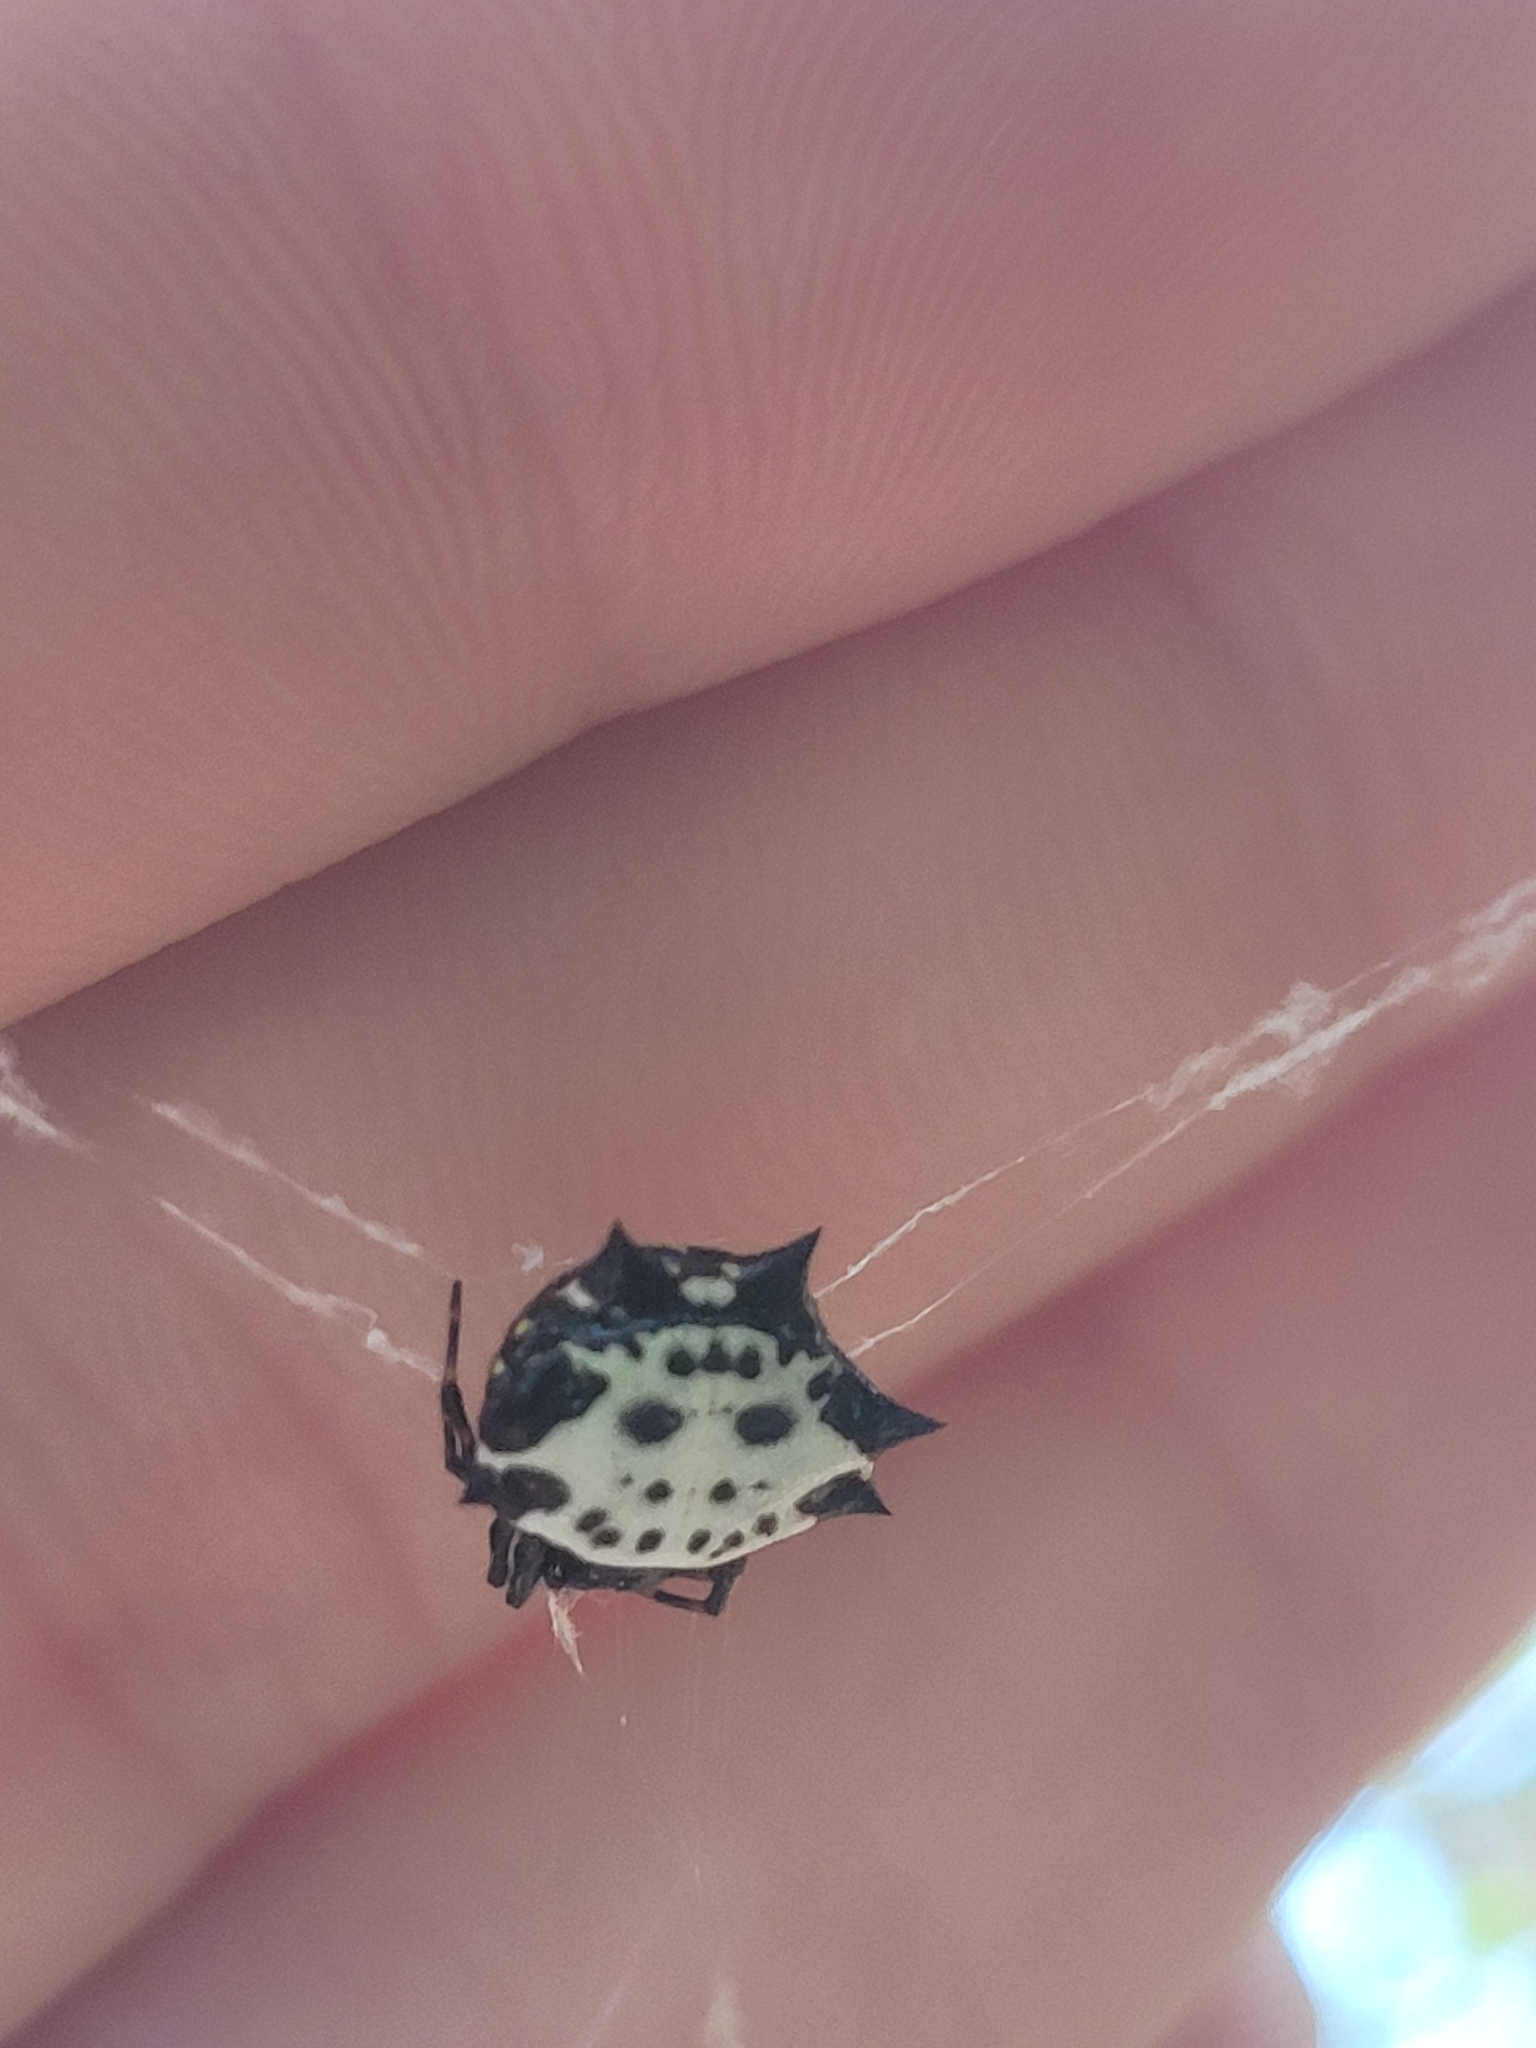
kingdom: Animalia
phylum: Arthropoda
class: Arachnida
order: Araneae
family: Araneidae
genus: Gasteracantha
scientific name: Gasteracantha cancriformis
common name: Orb weavers
